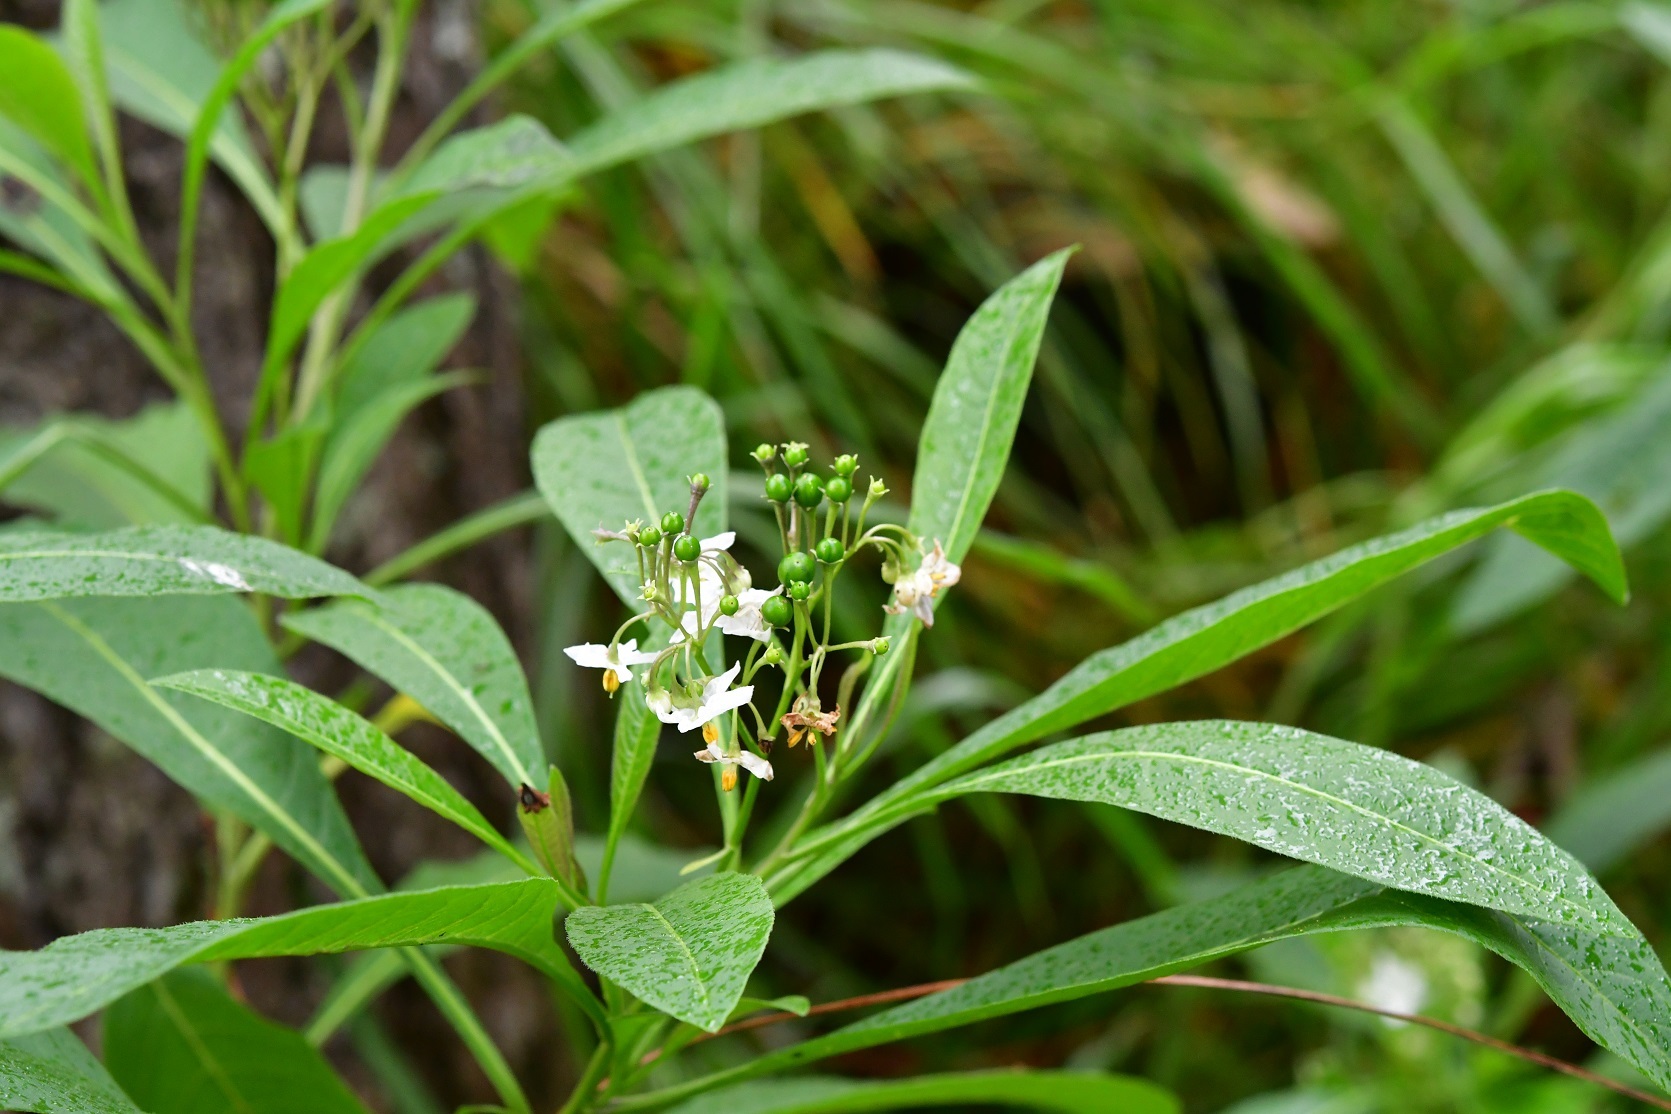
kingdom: Plantae
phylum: Tracheophyta
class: Magnoliopsida
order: Solanales
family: Solanaceae
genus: Solanum
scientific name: Solanum pubigerum
